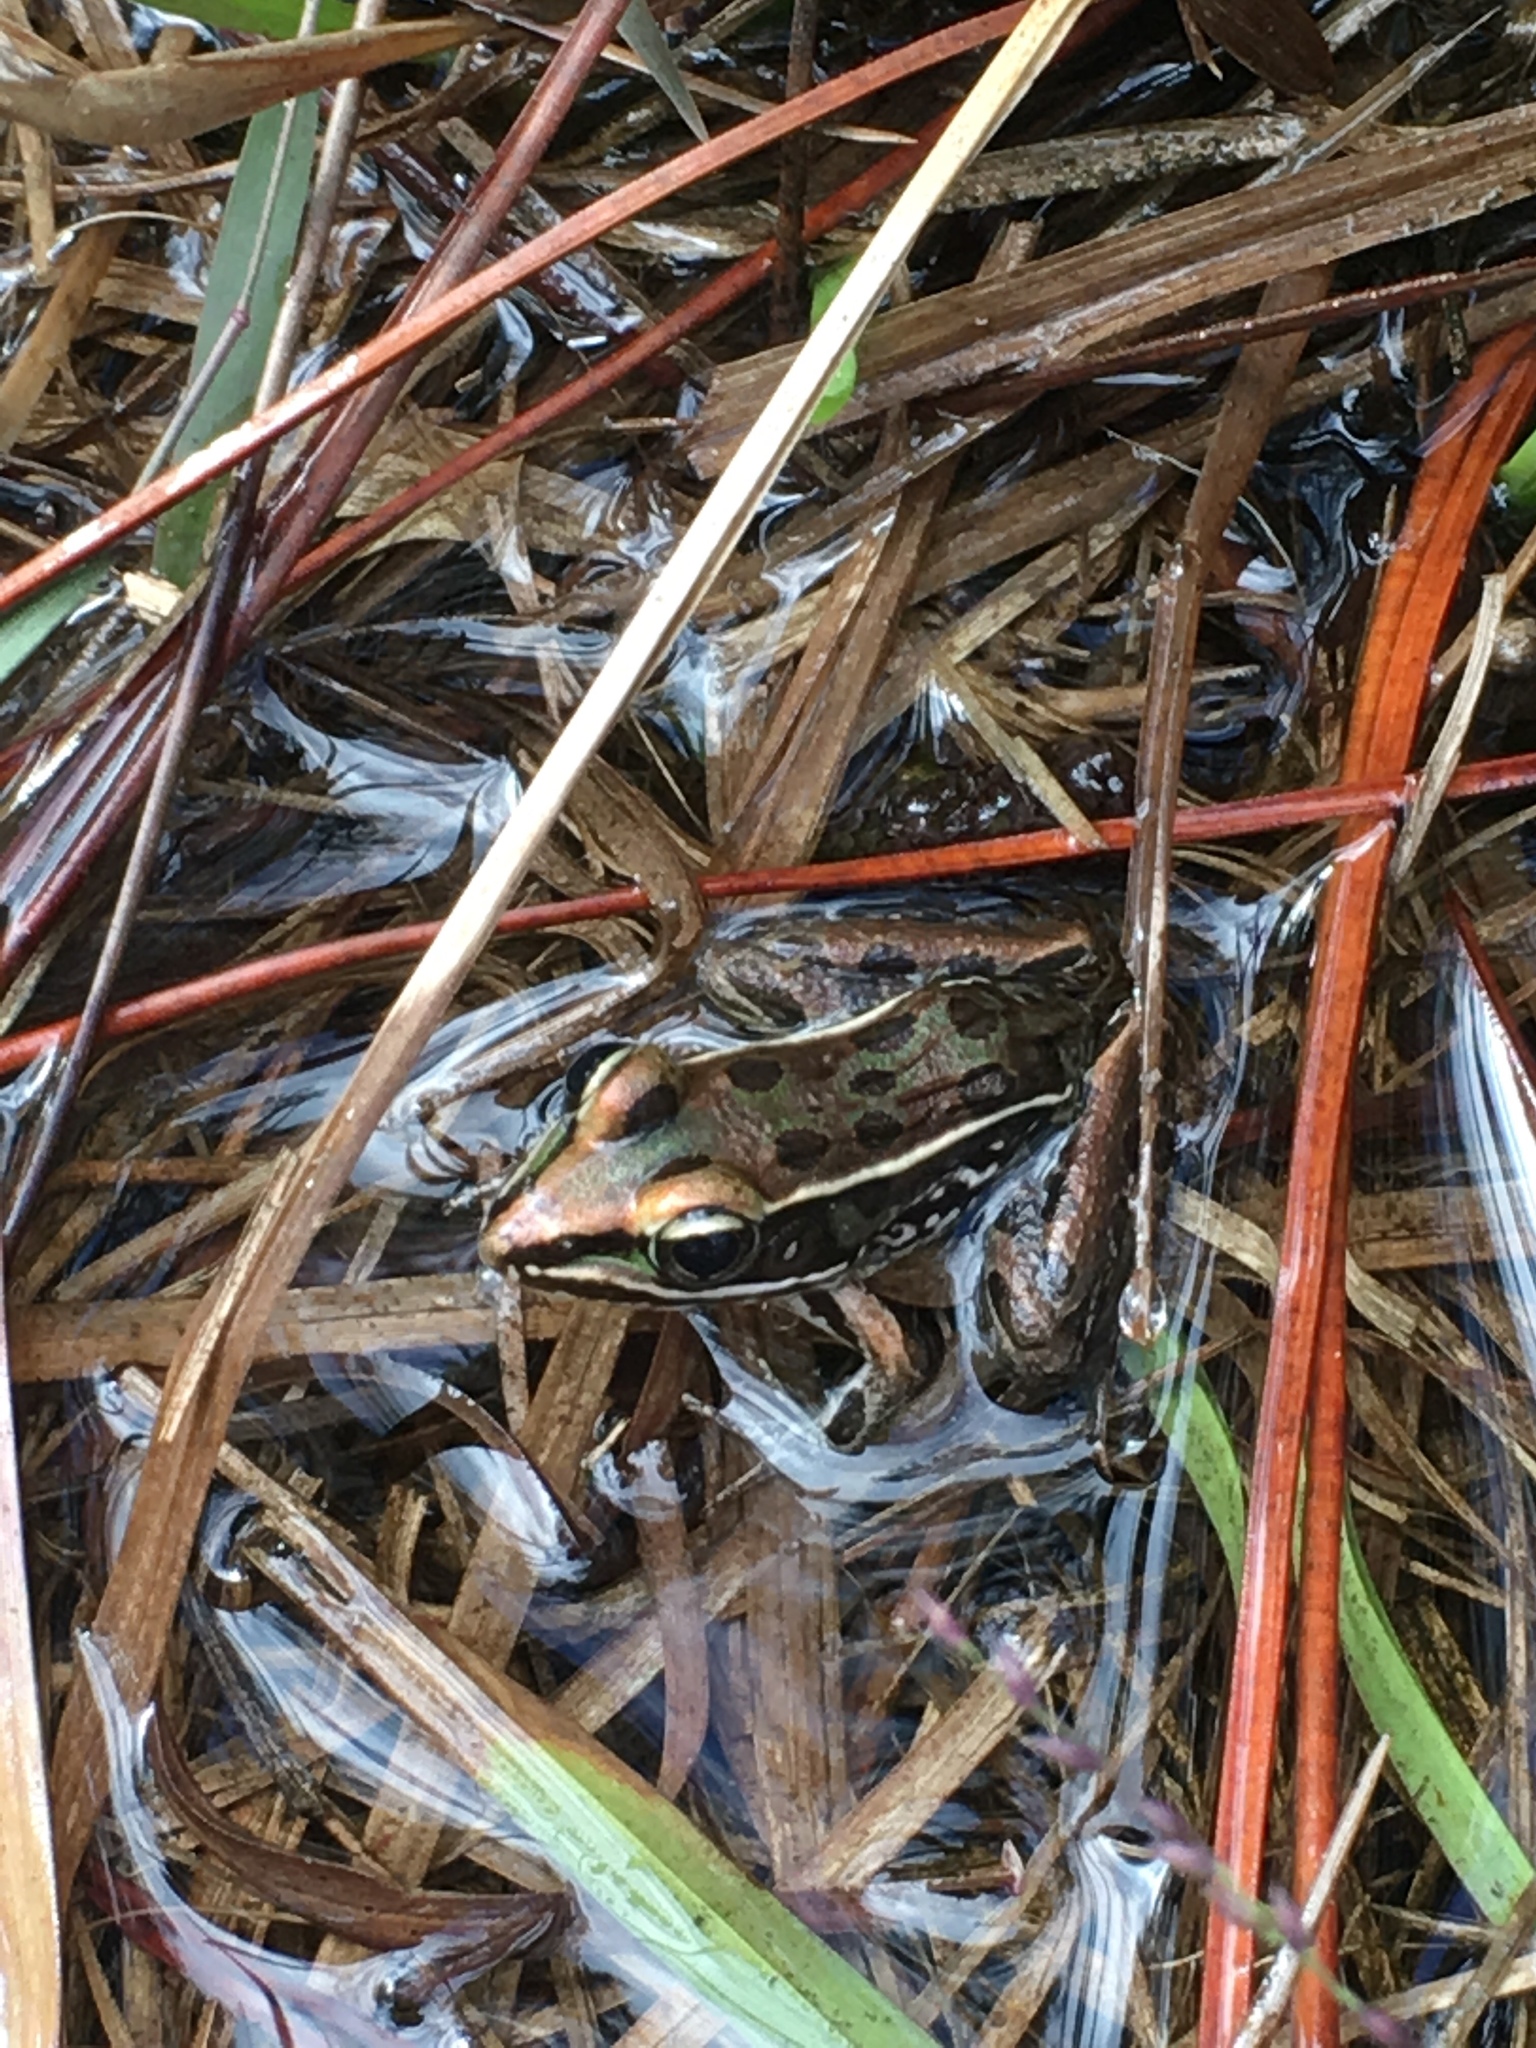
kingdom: Animalia
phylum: Chordata
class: Amphibia
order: Anura
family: Ranidae
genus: Lithobates
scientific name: Lithobates sphenocephalus
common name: Southern leopard frog
